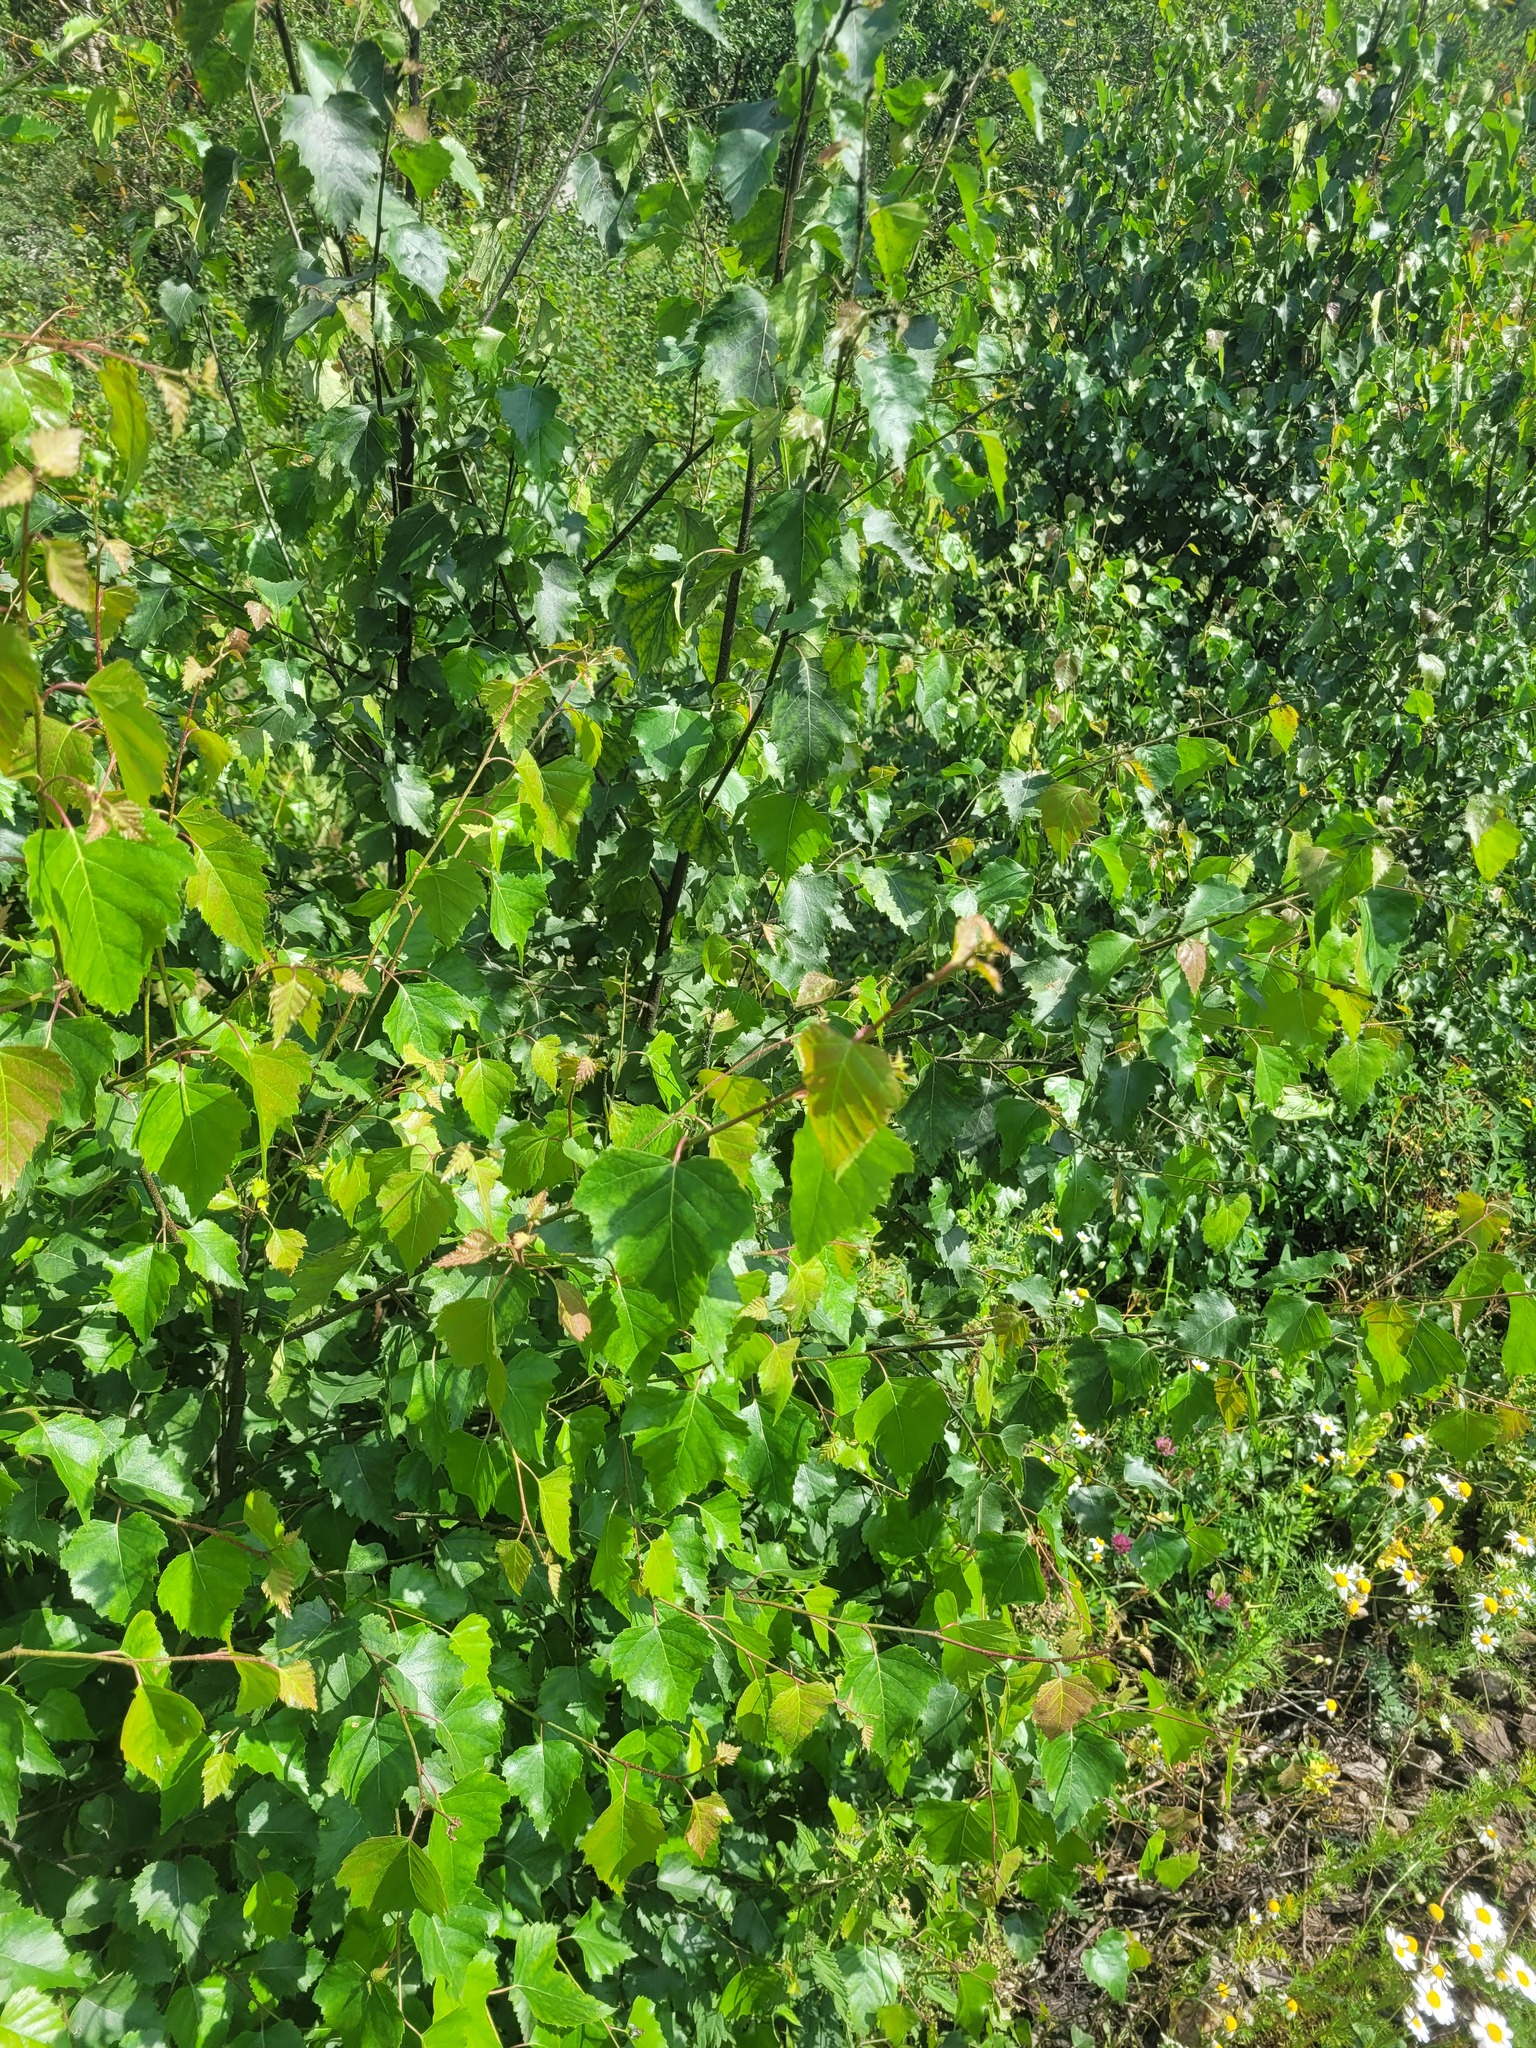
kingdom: Plantae
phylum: Tracheophyta
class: Magnoliopsida
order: Fagales
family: Betulaceae
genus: Betula
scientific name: Betula pendula
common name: Silver birch
